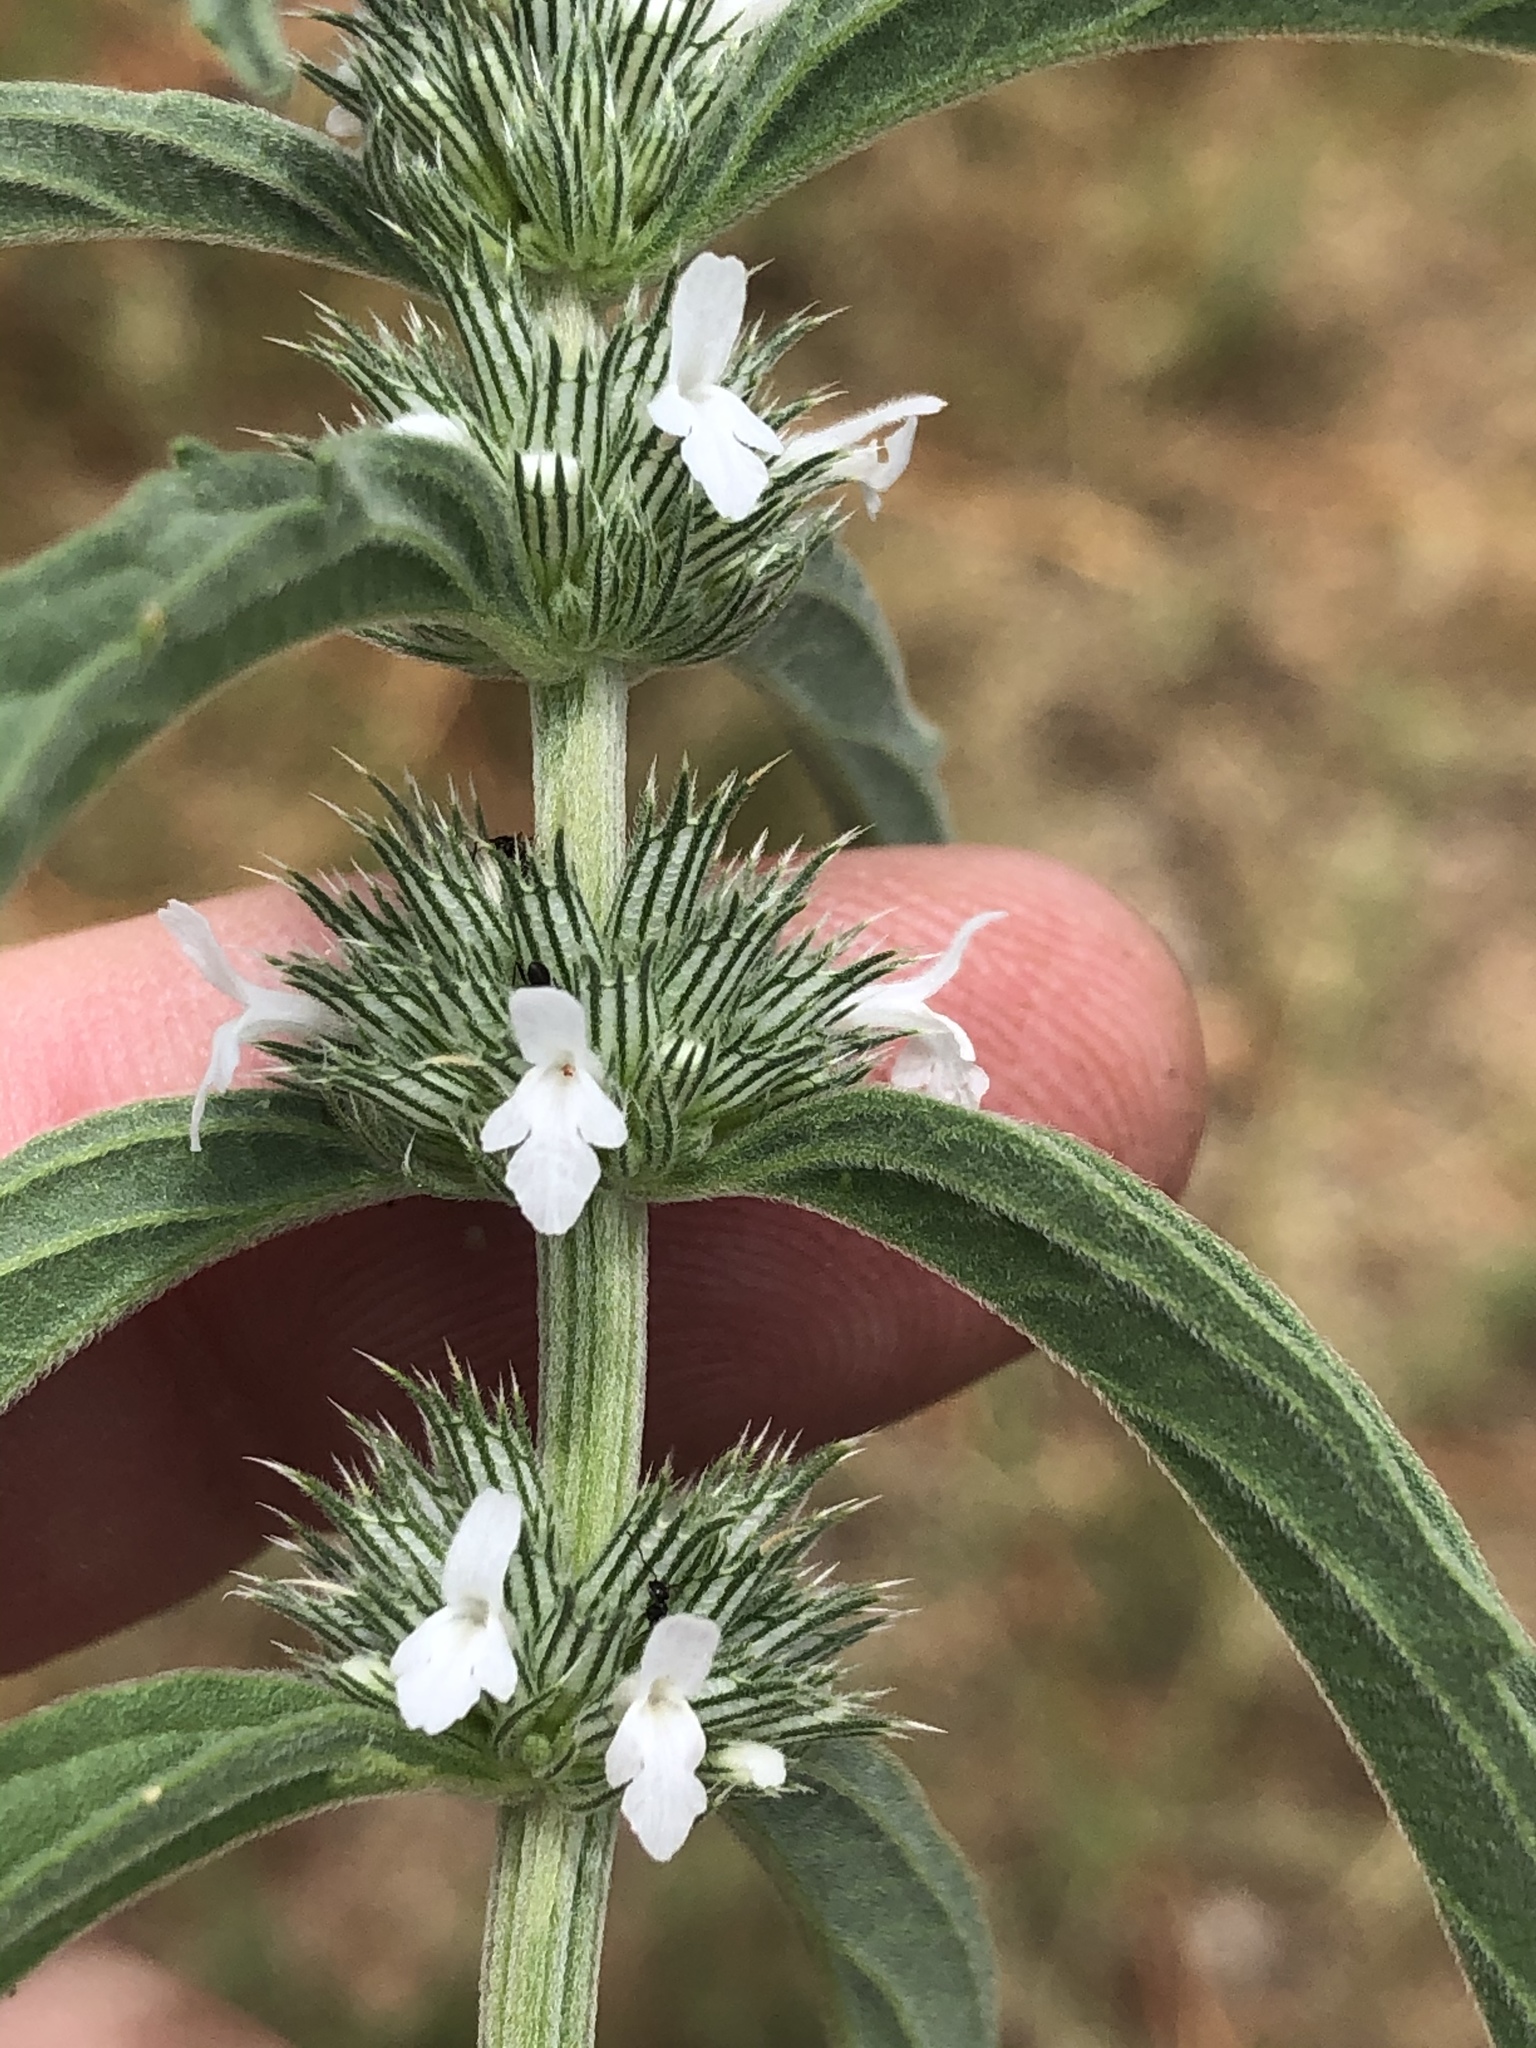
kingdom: Plantae
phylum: Tracheophyta
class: Magnoliopsida
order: Lamiales
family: Lamiaceae
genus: Acrotome
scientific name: Acrotome fleckii
